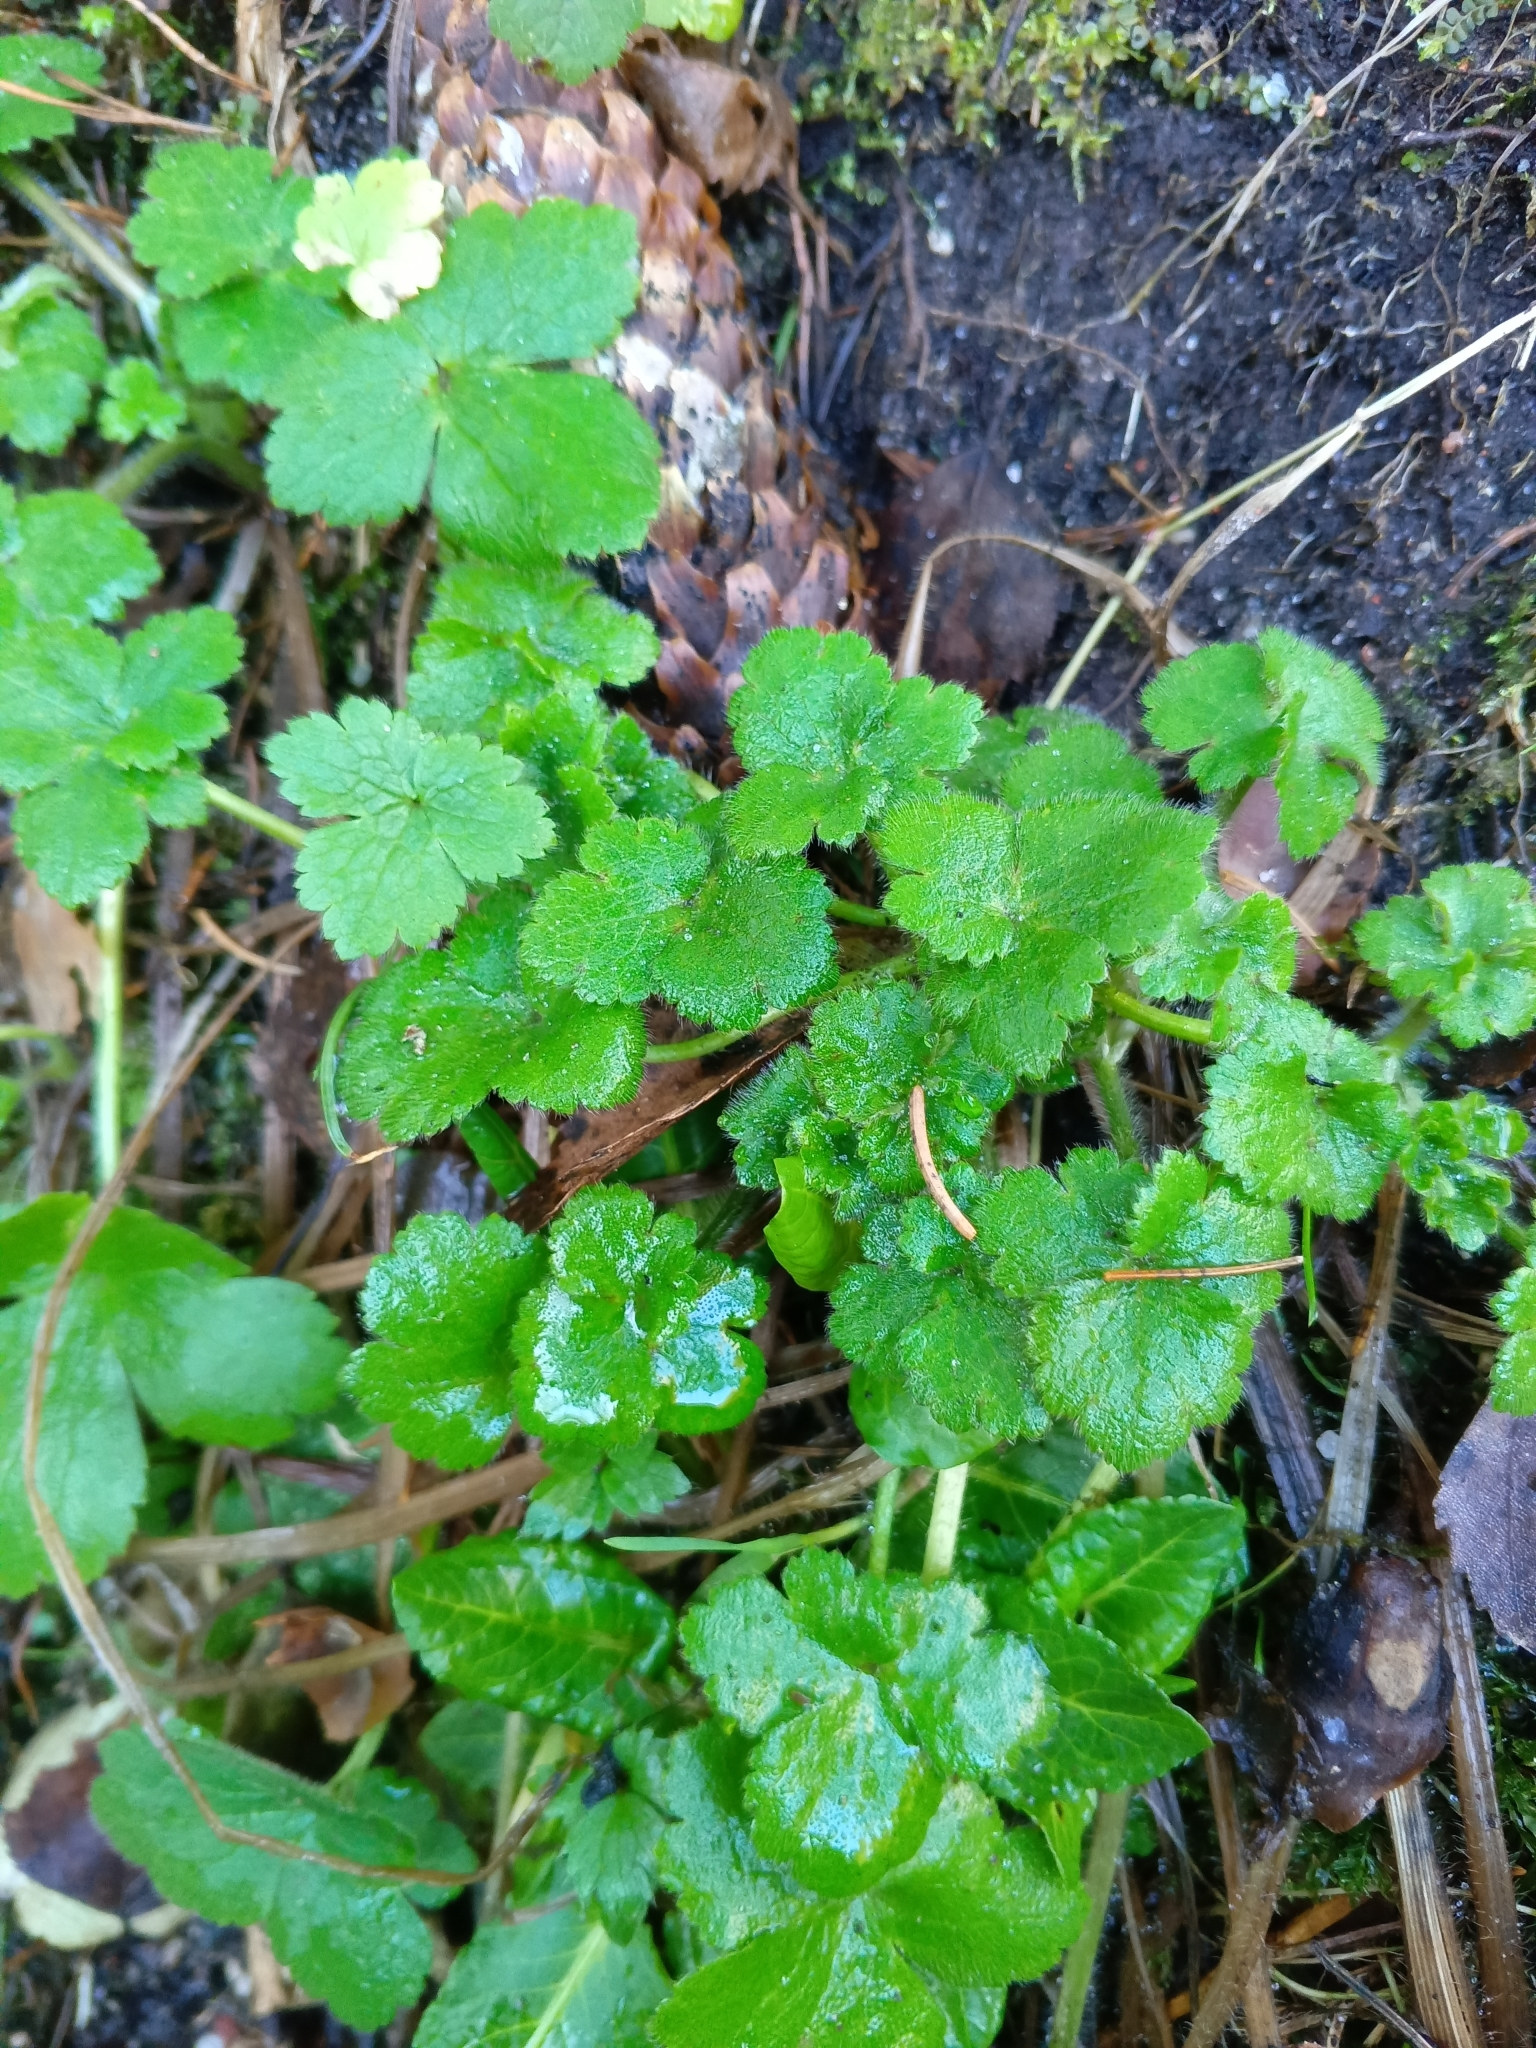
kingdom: Plantae
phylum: Tracheophyta
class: Magnoliopsida
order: Ranunculales
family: Ranunculaceae
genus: Ranunculus
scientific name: Ranunculus lanuginosus
